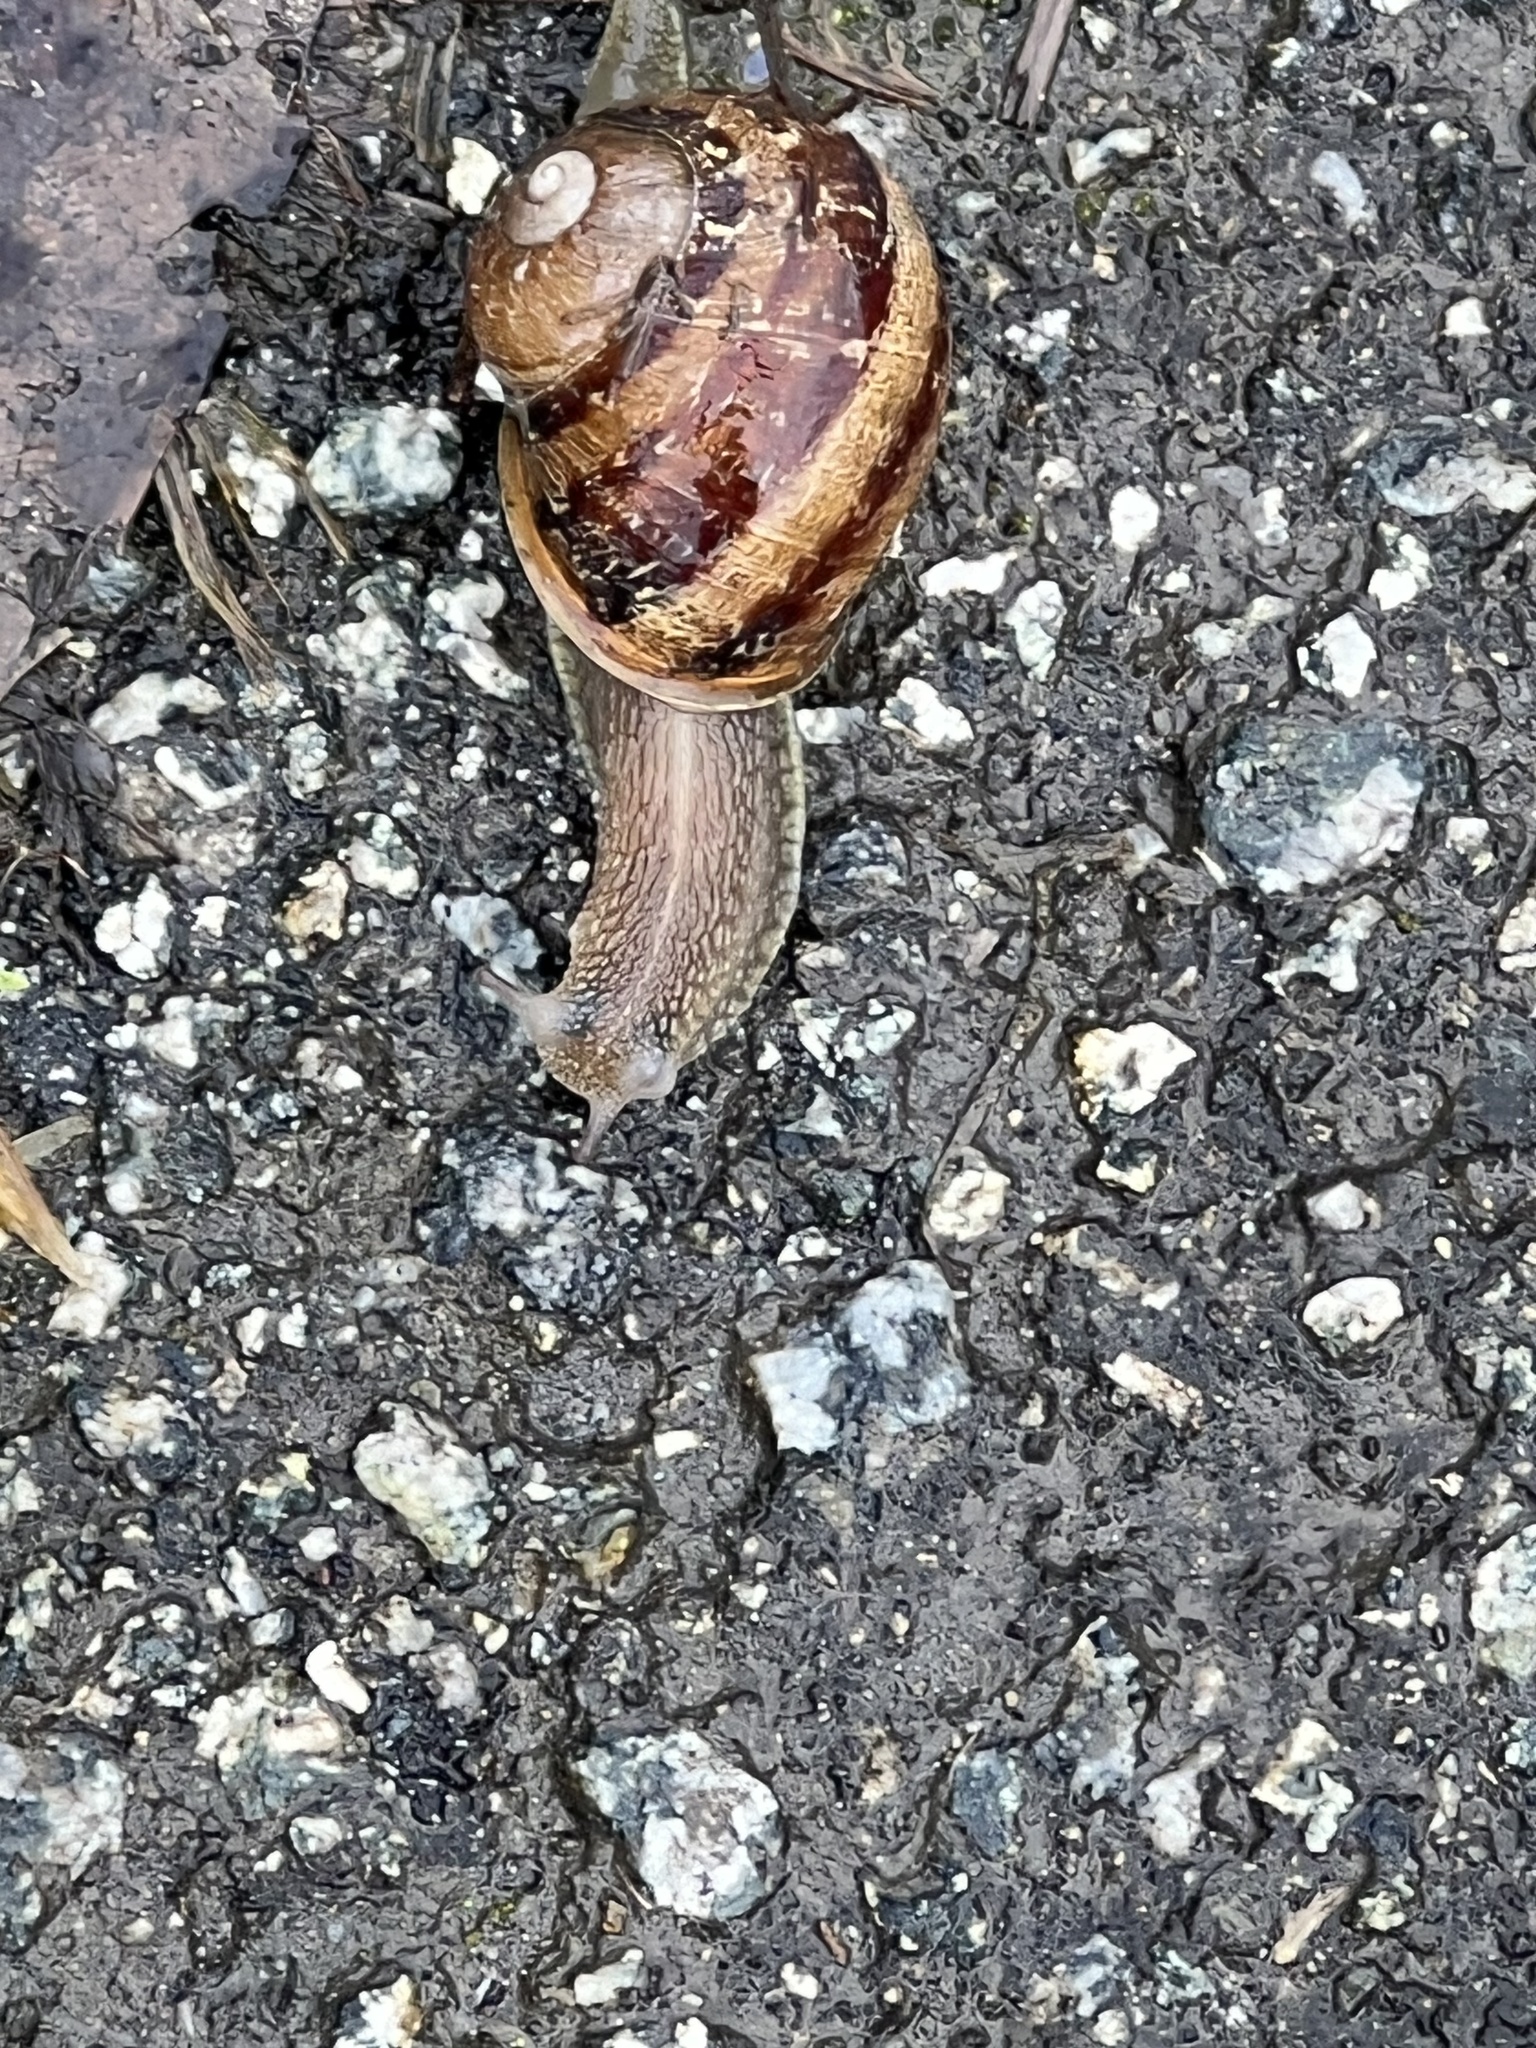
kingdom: Animalia
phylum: Mollusca
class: Gastropoda
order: Stylommatophora
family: Helicidae
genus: Cornu
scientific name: Cornu aspersum
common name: Brown garden snail
